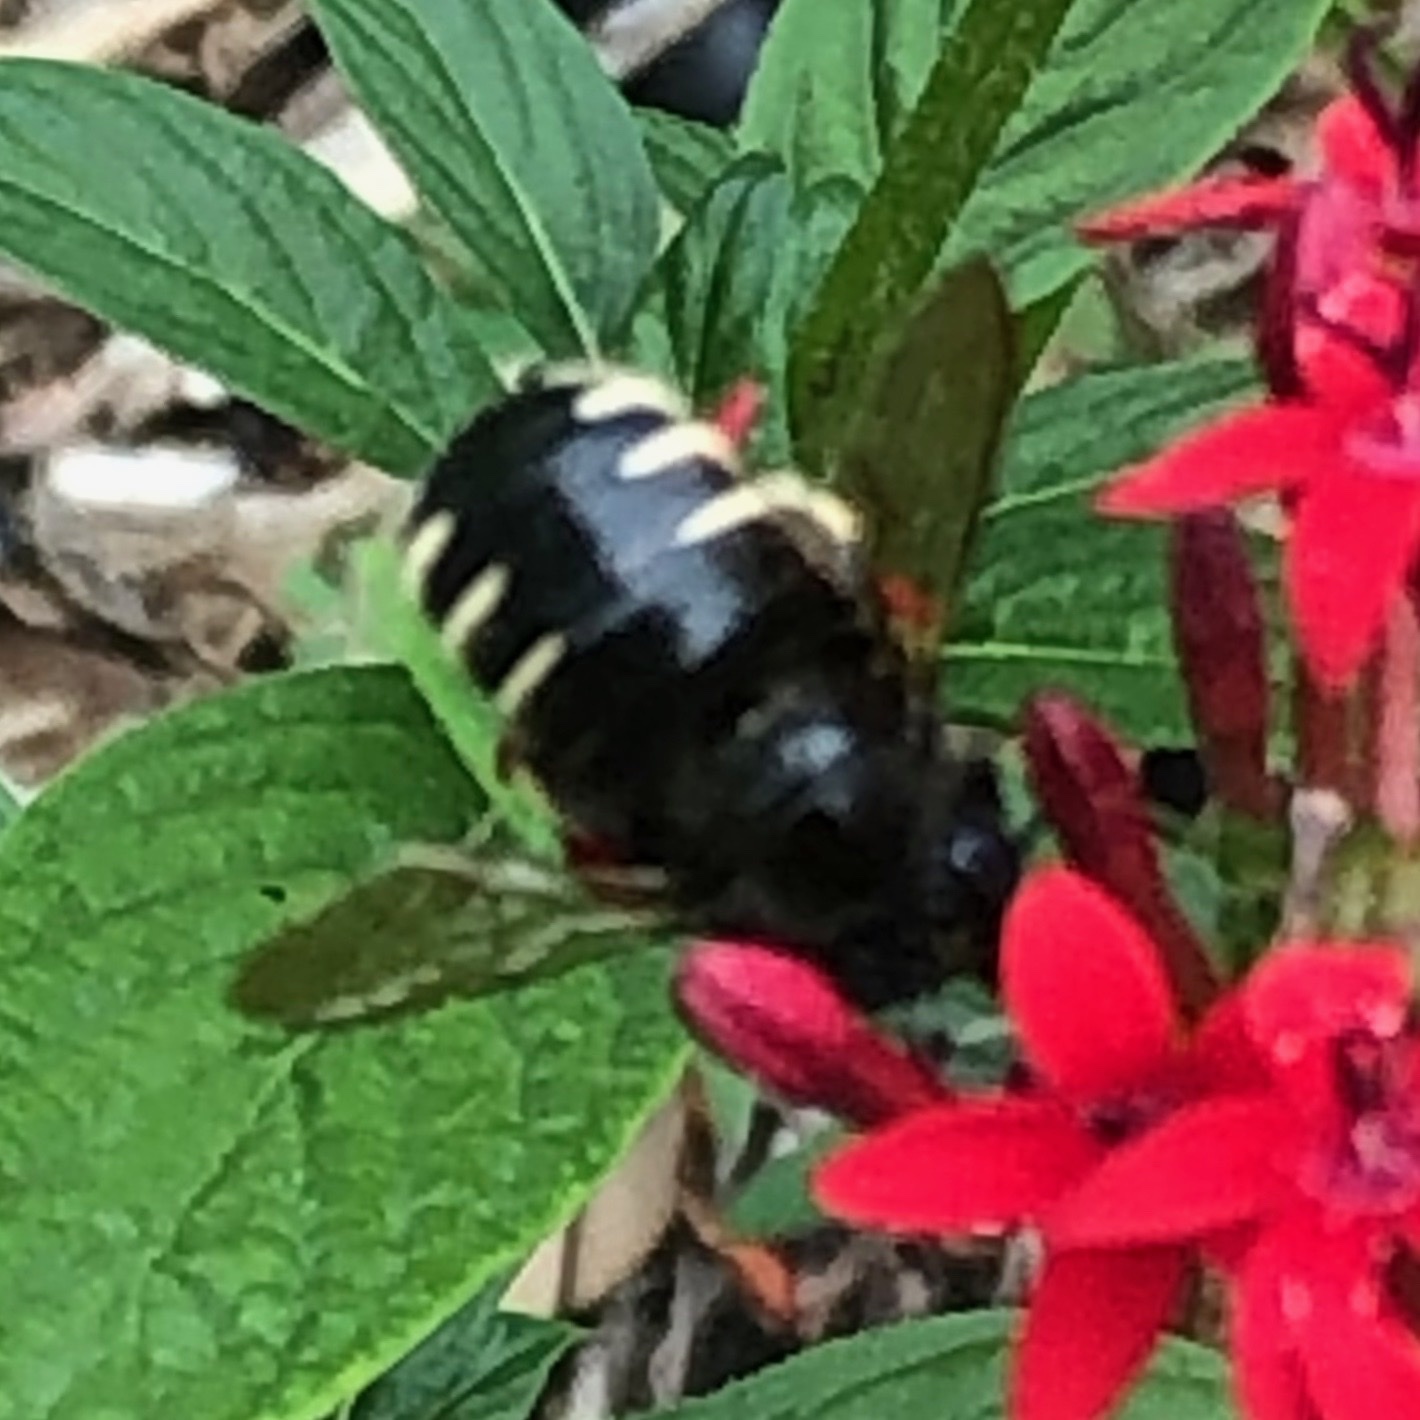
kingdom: Animalia
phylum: Arthropoda
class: Insecta
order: Hymenoptera
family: Apidae
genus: Xylocopa
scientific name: Xylocopa tabaniformis
